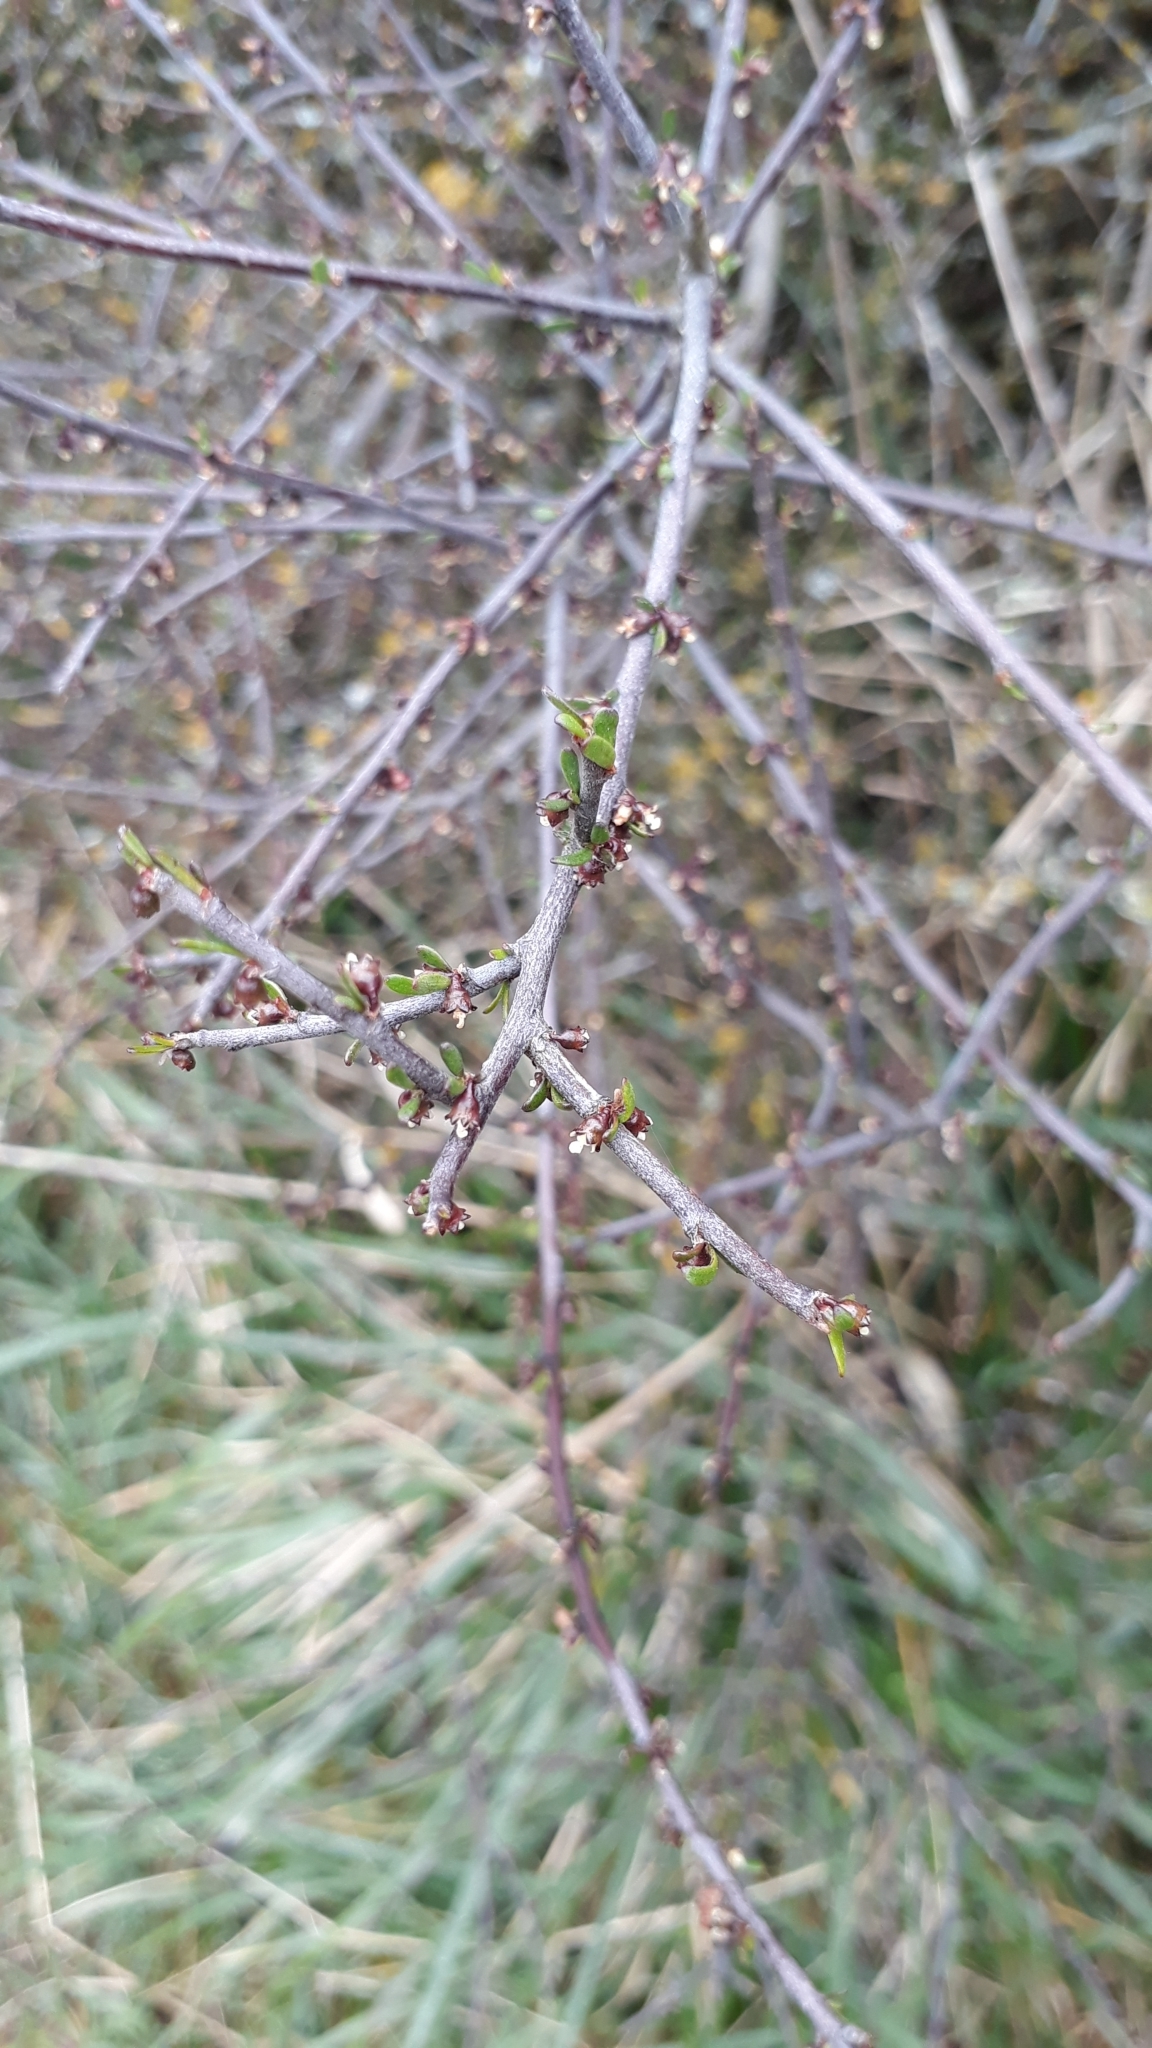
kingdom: Plantae
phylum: Tracheophyta
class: Magnoliopsida
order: Malvales
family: Malvaceae
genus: Plagianthus
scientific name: Plagianthus divaricatus
